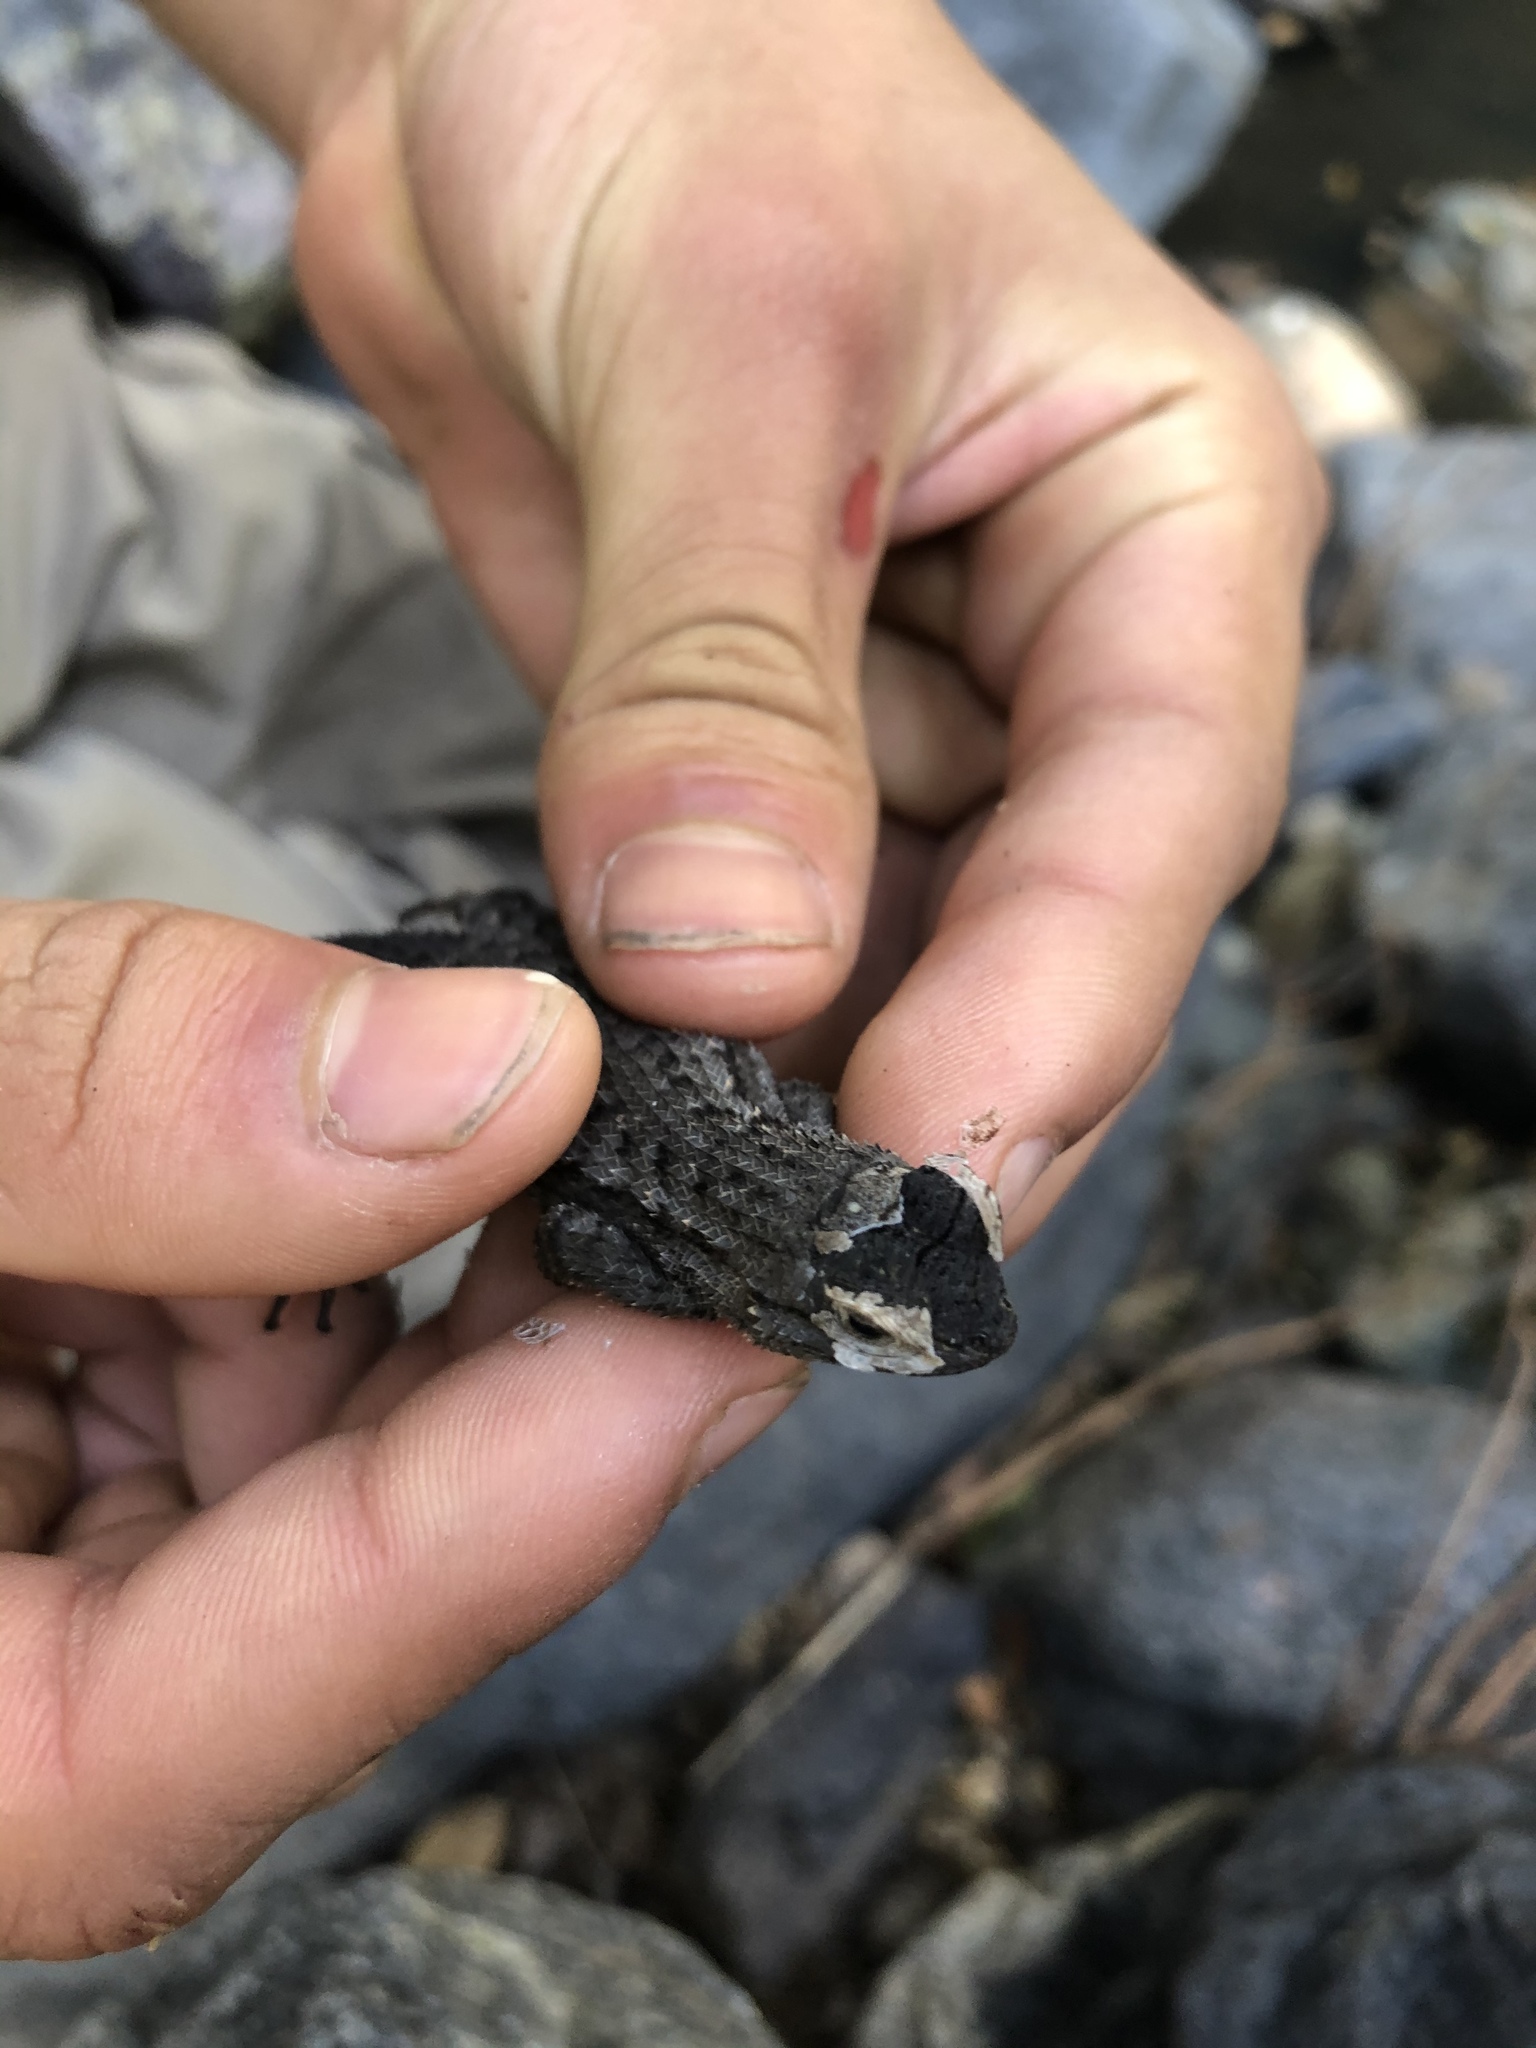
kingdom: Animalia
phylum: Chordata
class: Squamata
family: Phrynosomatidae
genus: Sceloporus
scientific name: Sceloporus occidentalis
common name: Western fence lizard
